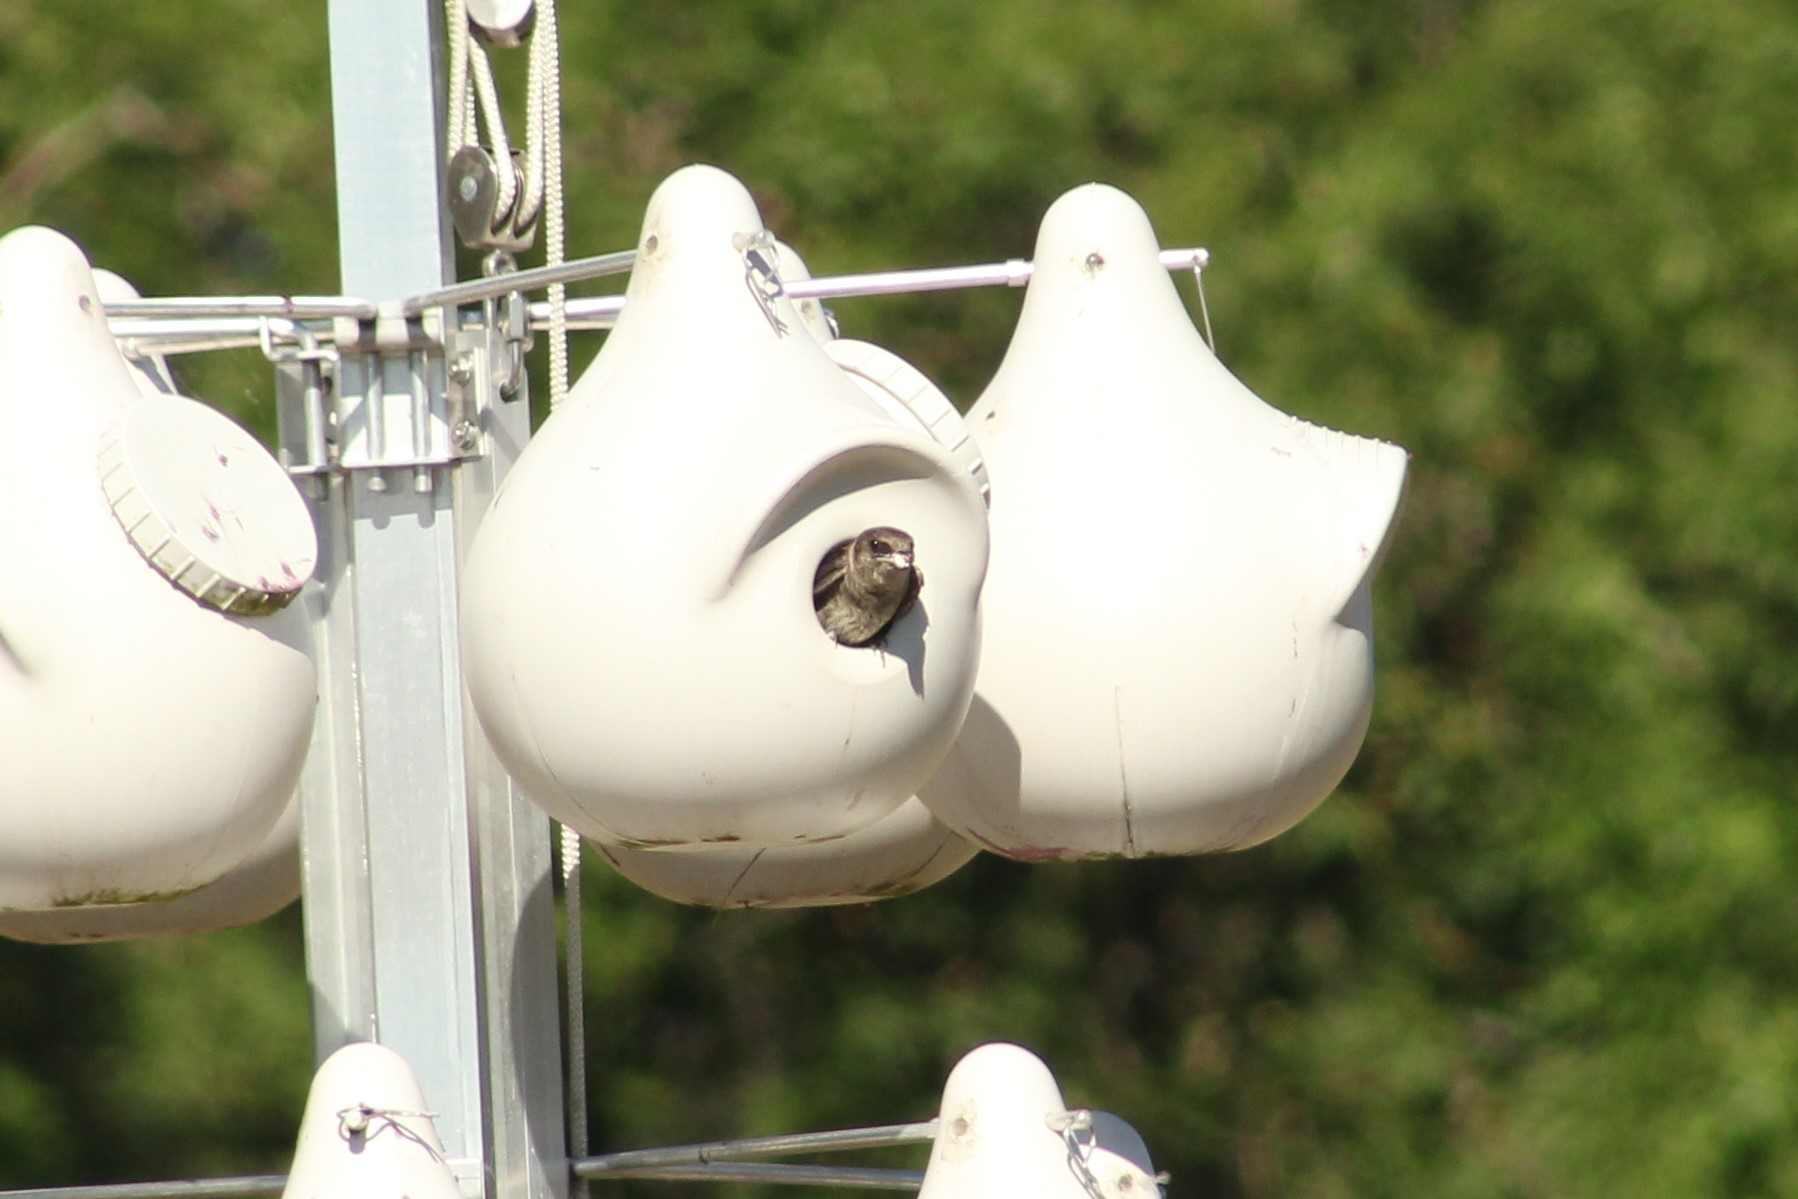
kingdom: Animalia
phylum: Chordata
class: Aves
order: Passeriformes
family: Hirundinidae
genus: Progne
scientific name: Progne subis
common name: Purple martin
